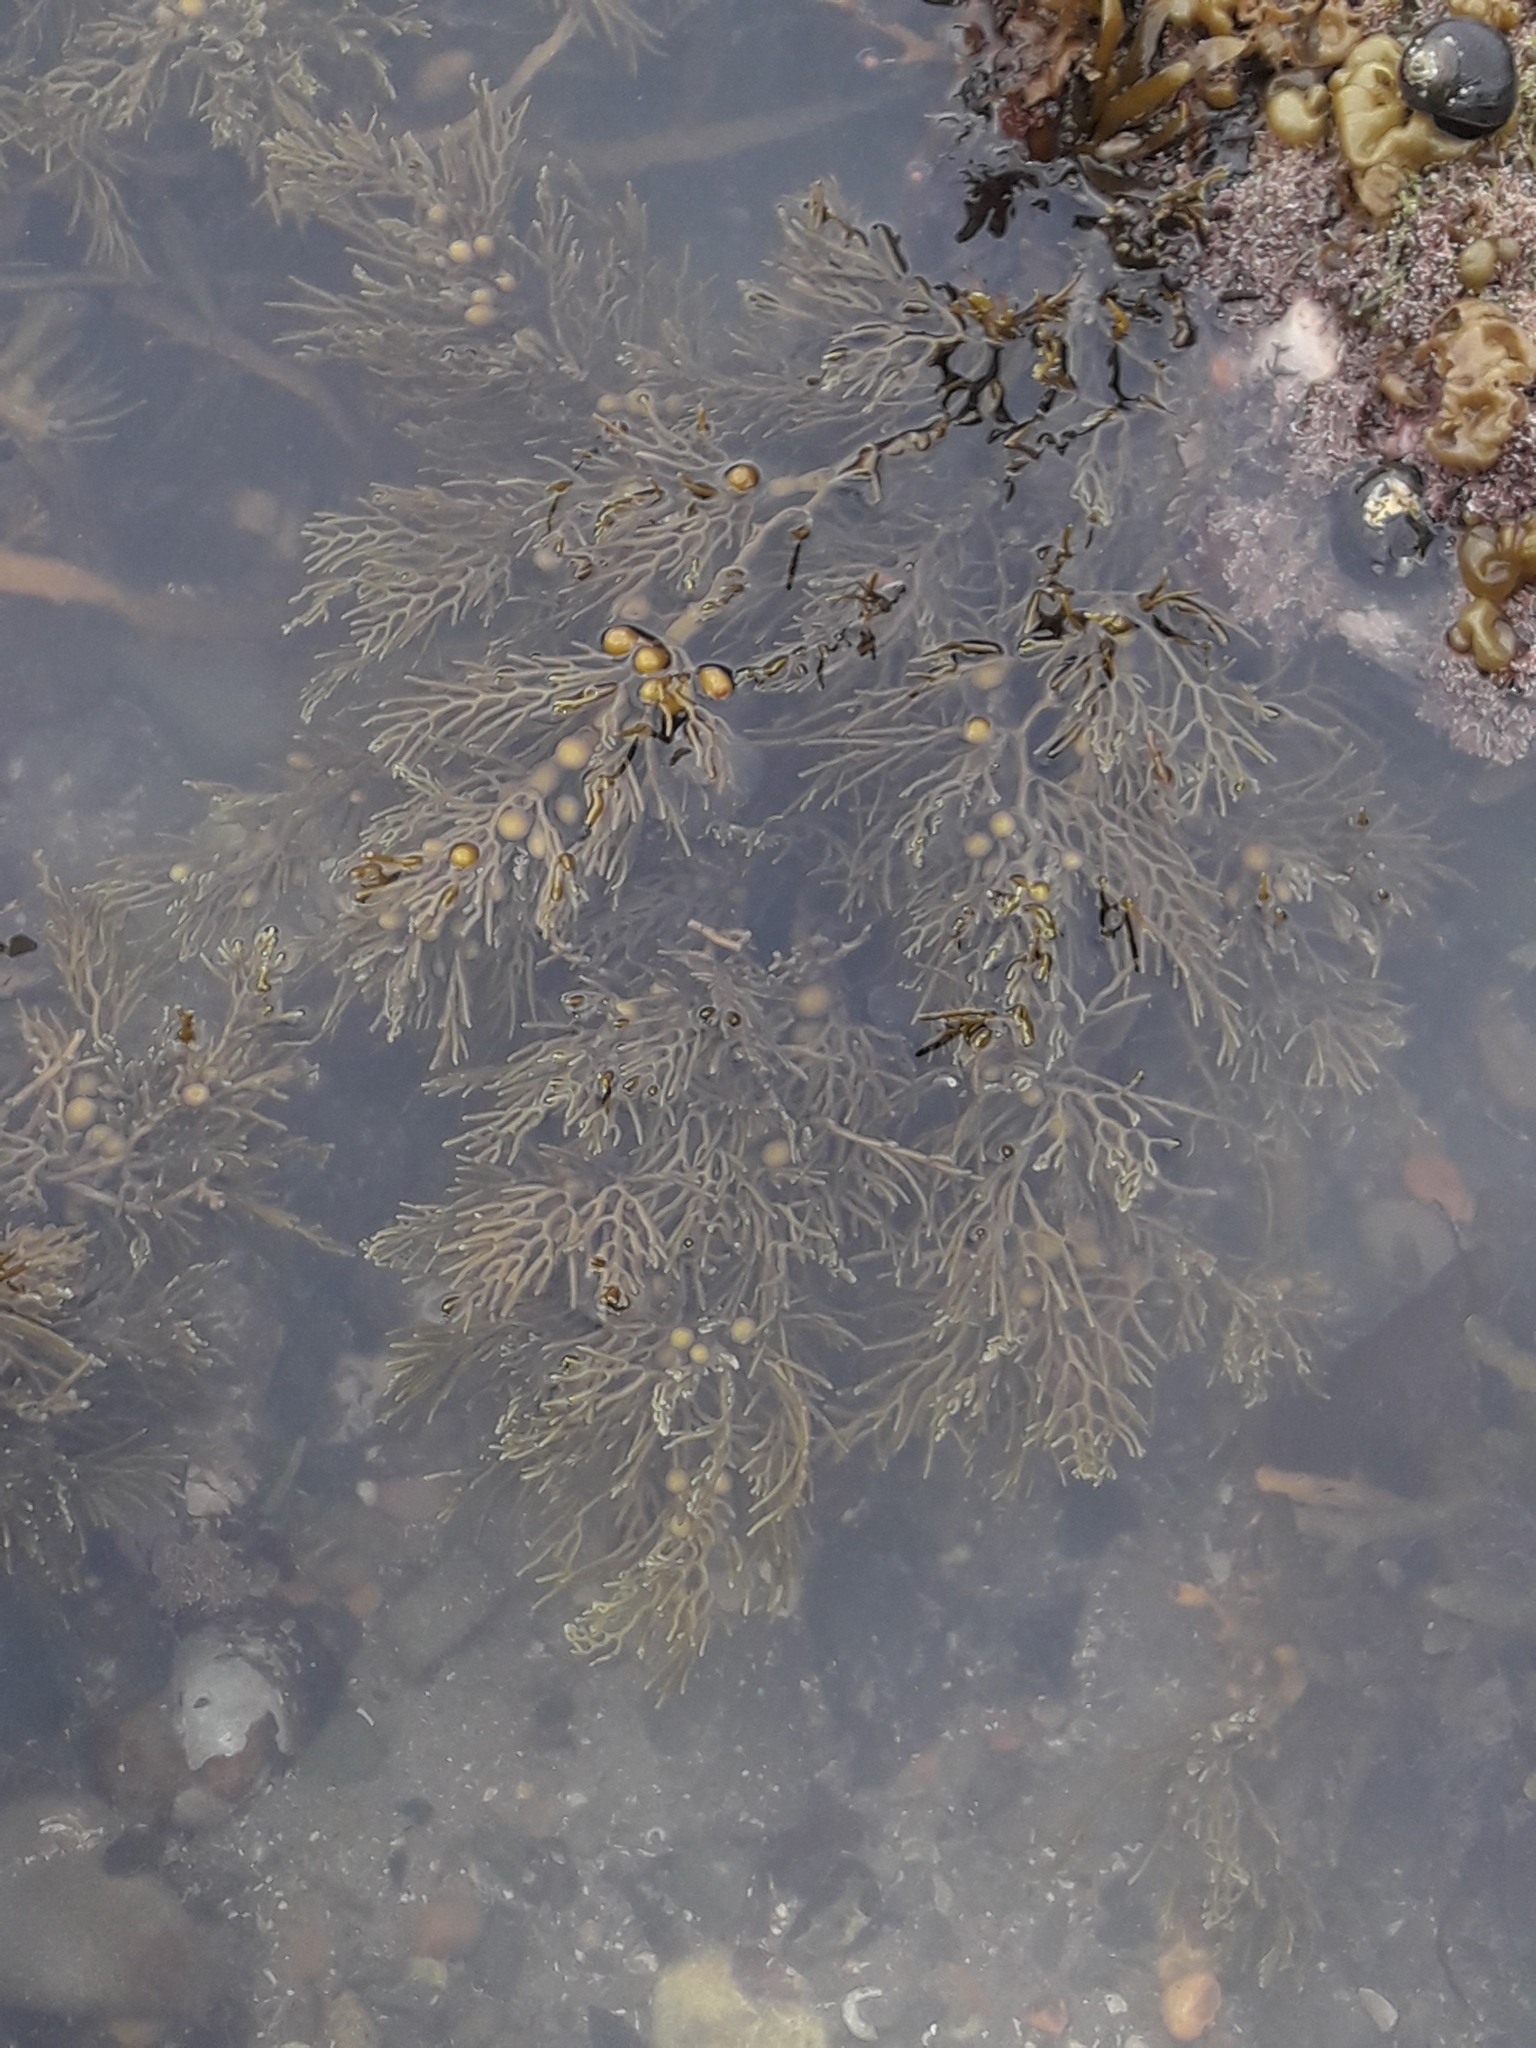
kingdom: Chromista
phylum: Ochrophyta
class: Phaeophyceae
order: Fucales
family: Sargassaceae
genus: Cystophora
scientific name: Cystophora retroflexa
